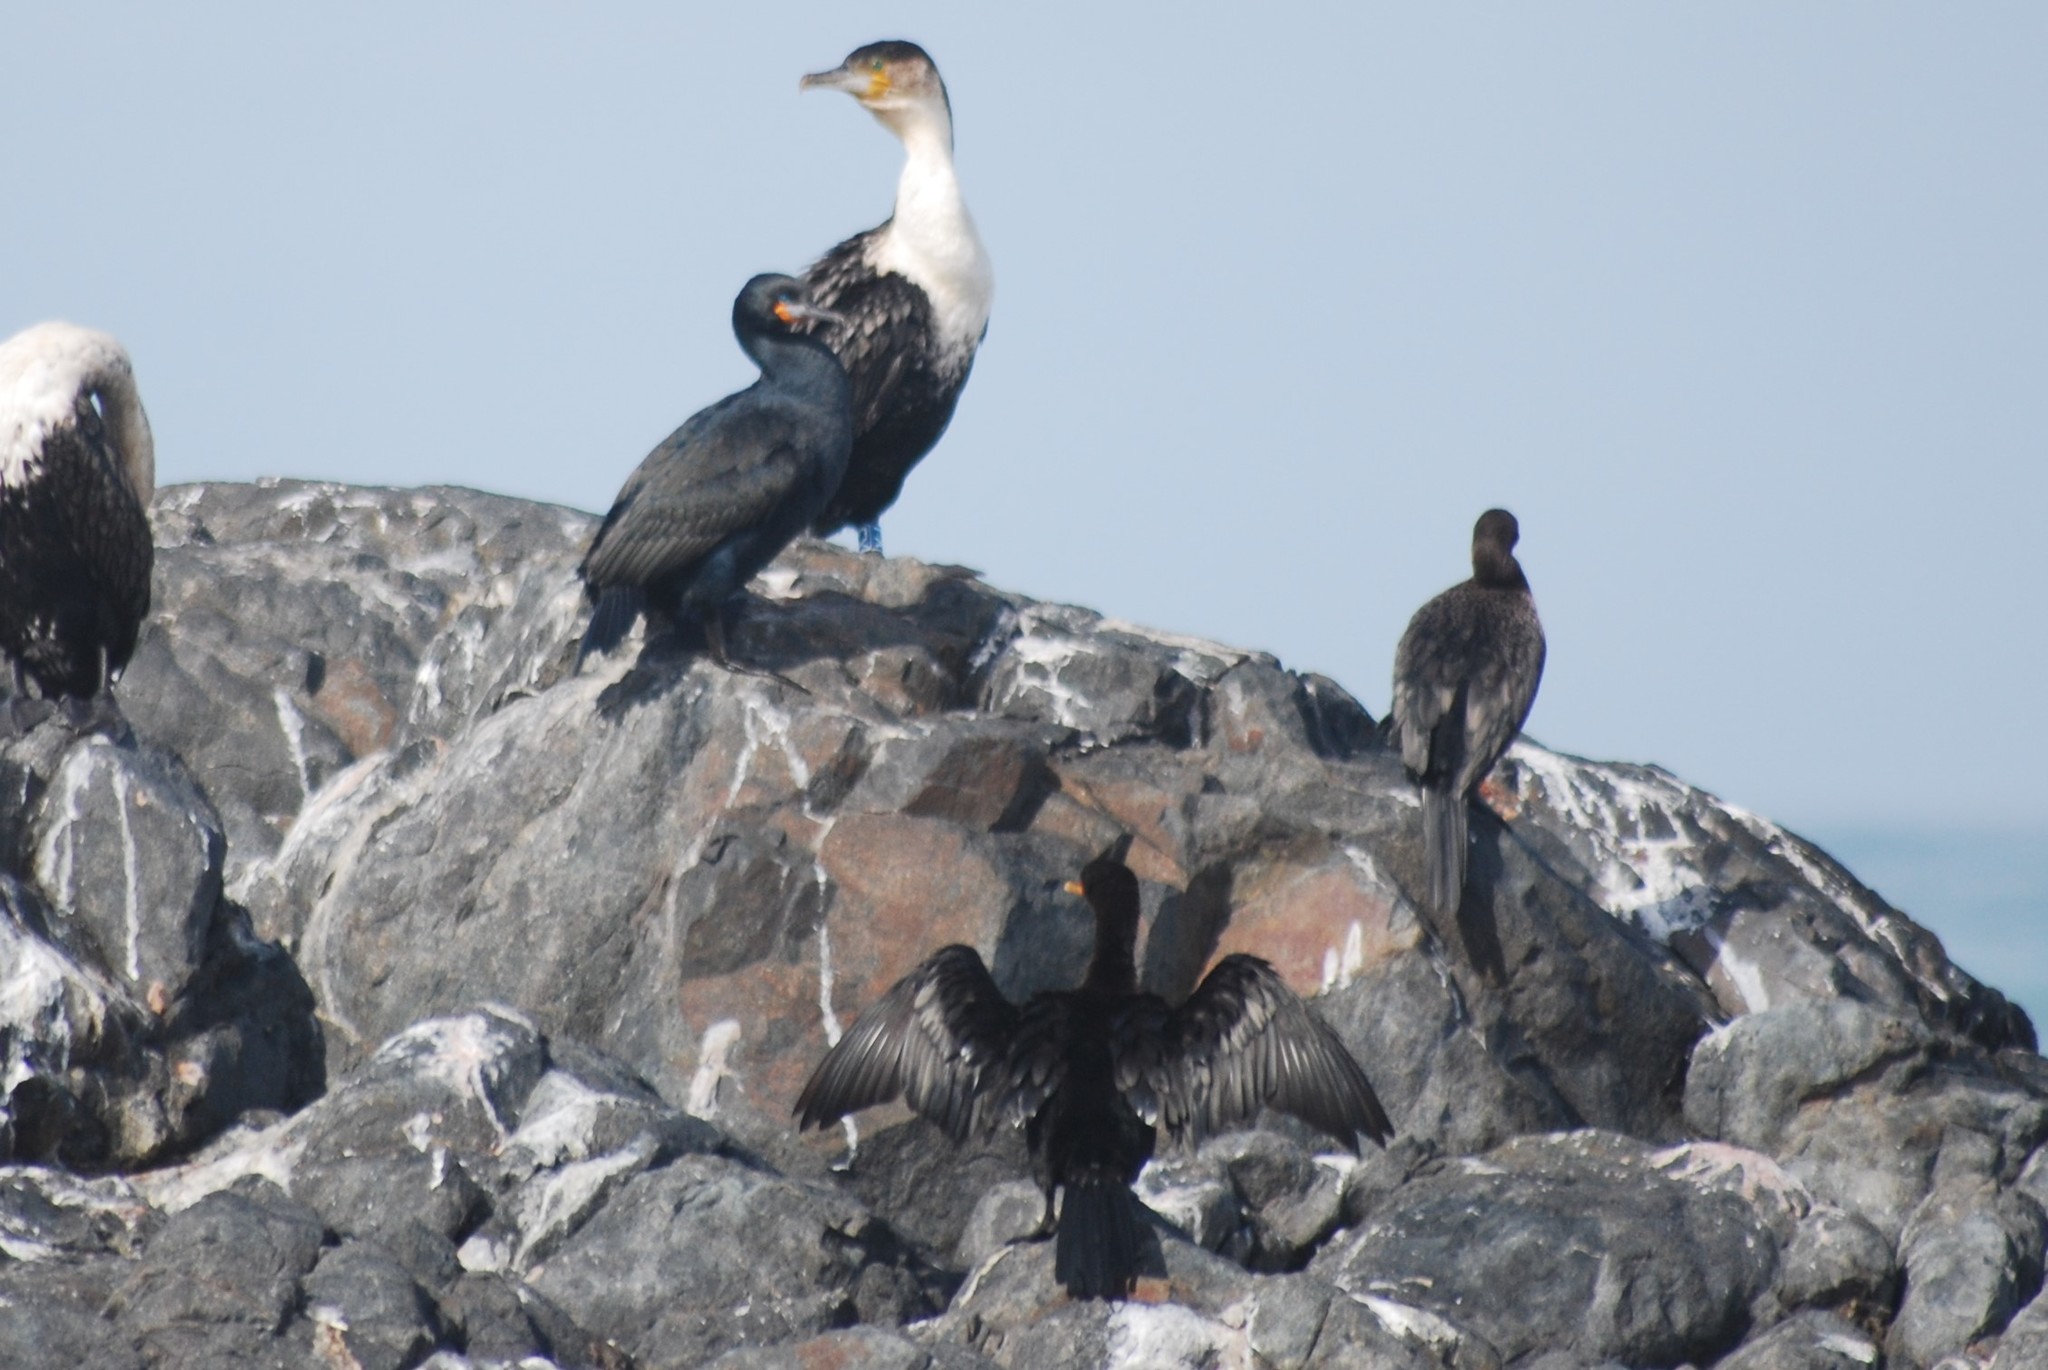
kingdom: Animalia
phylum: Chordata
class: Aves
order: Suliformes
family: Phalacrocoracidae
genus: Phalacrocorax
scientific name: Phalacrocorax capensis
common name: Cape cormorant
